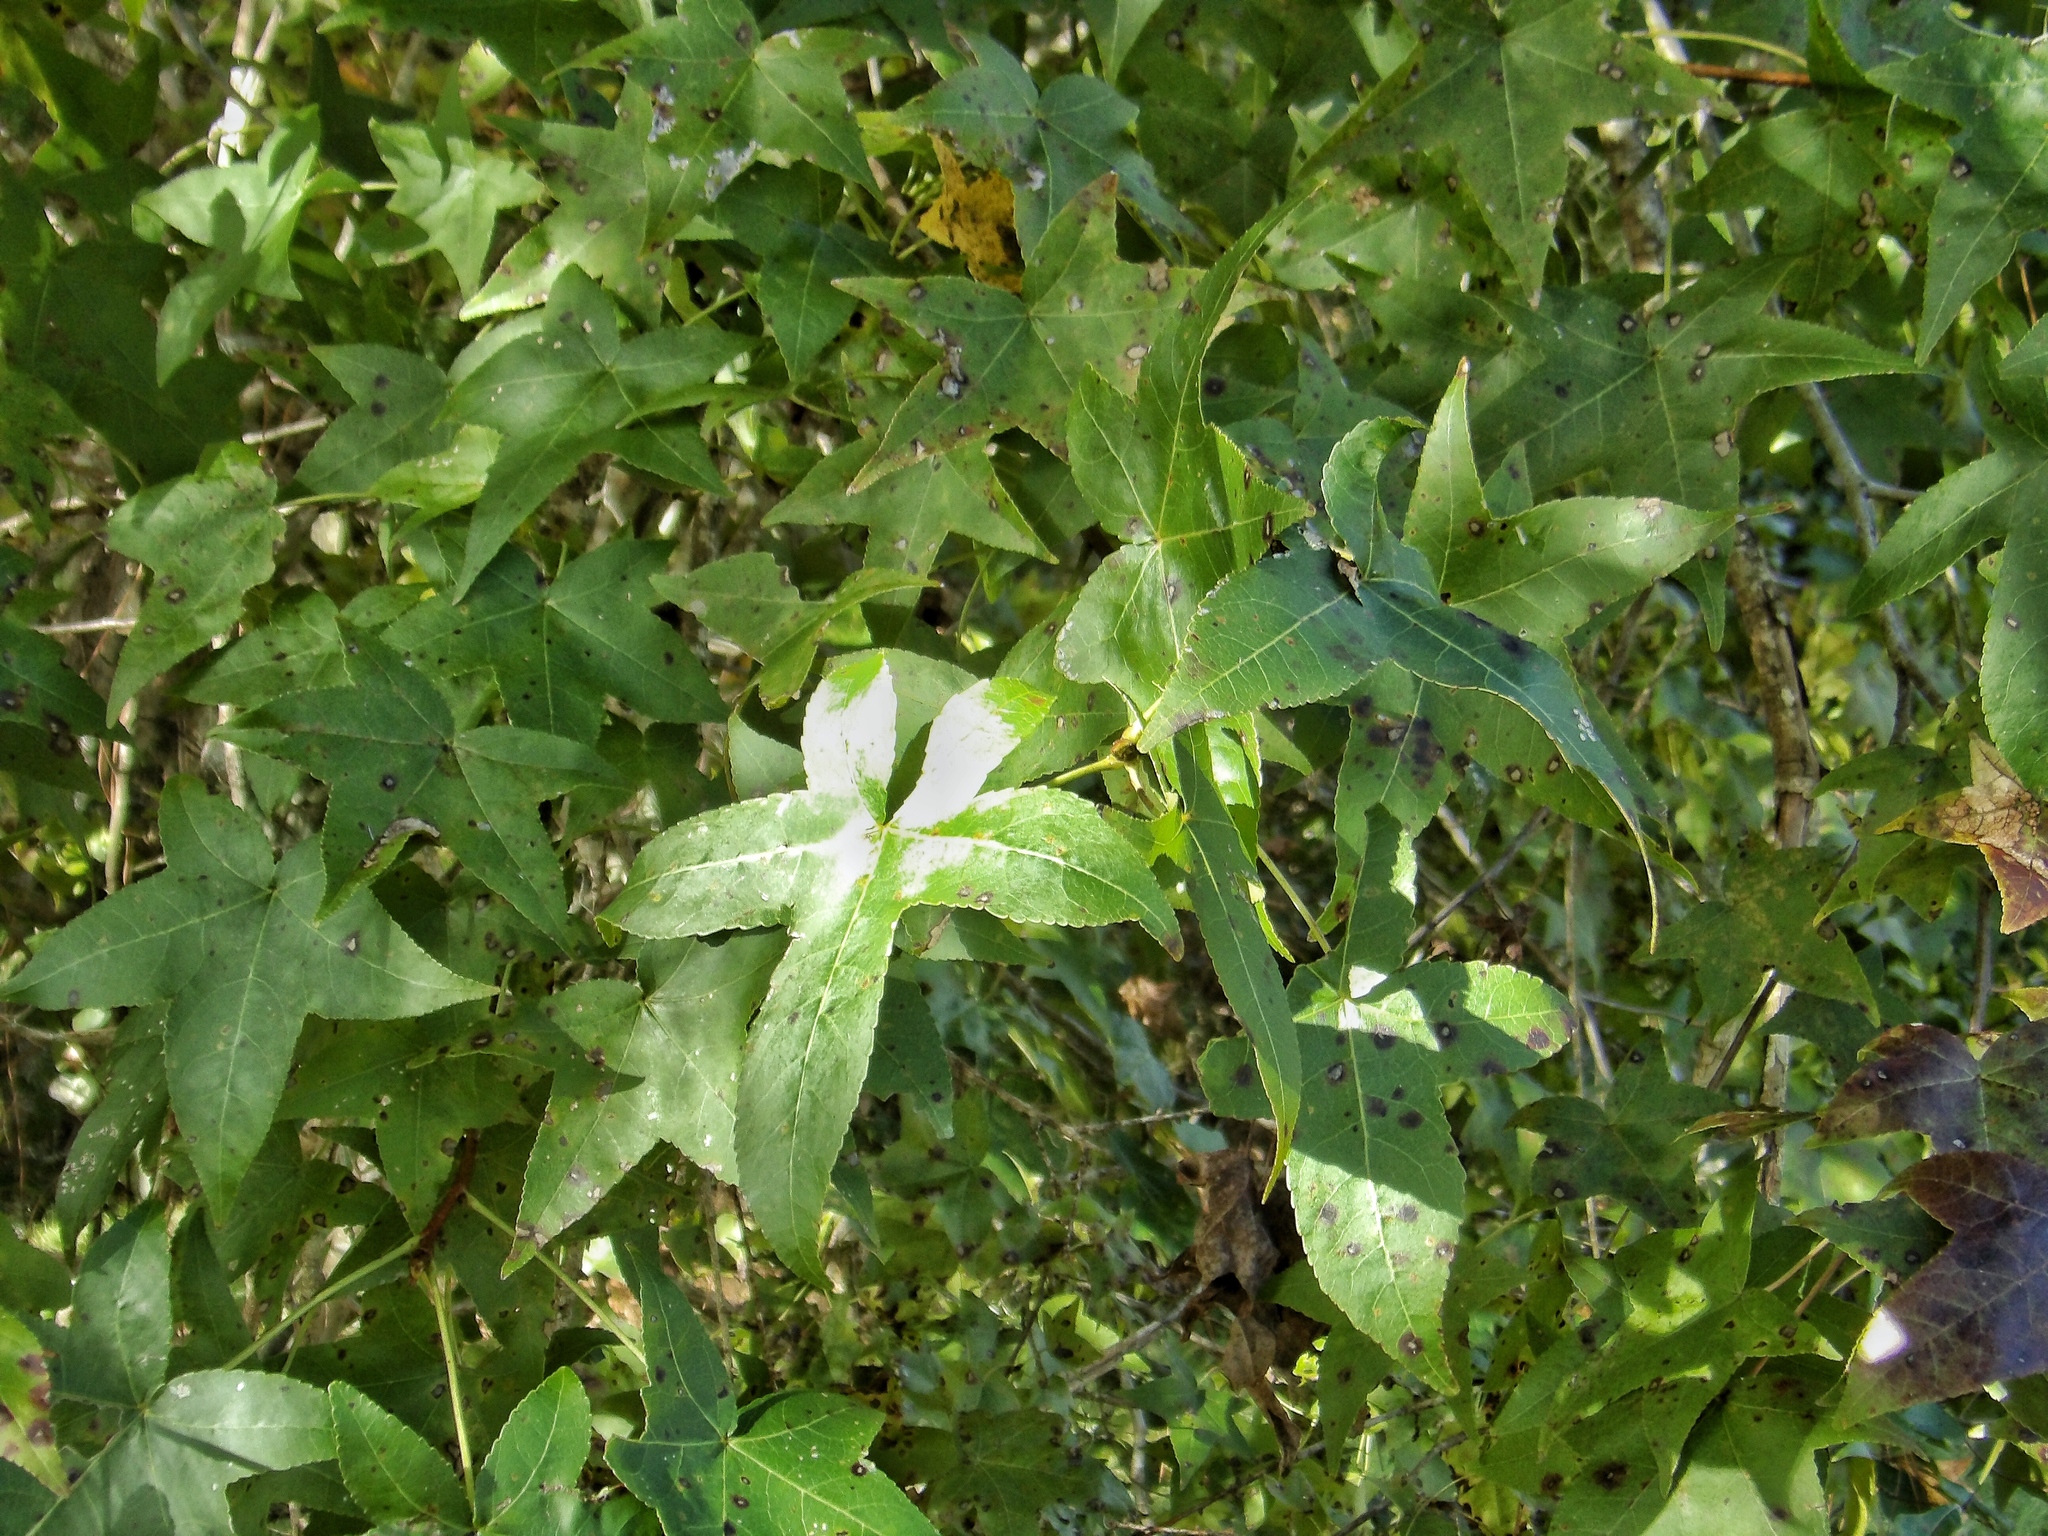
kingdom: Plantae
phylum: Tracheophyta
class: Magnoliopsida
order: Saxifragales
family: Altingiaceae
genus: Liquidambar
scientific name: Liquidambar styraciflua
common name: Sweet gum
